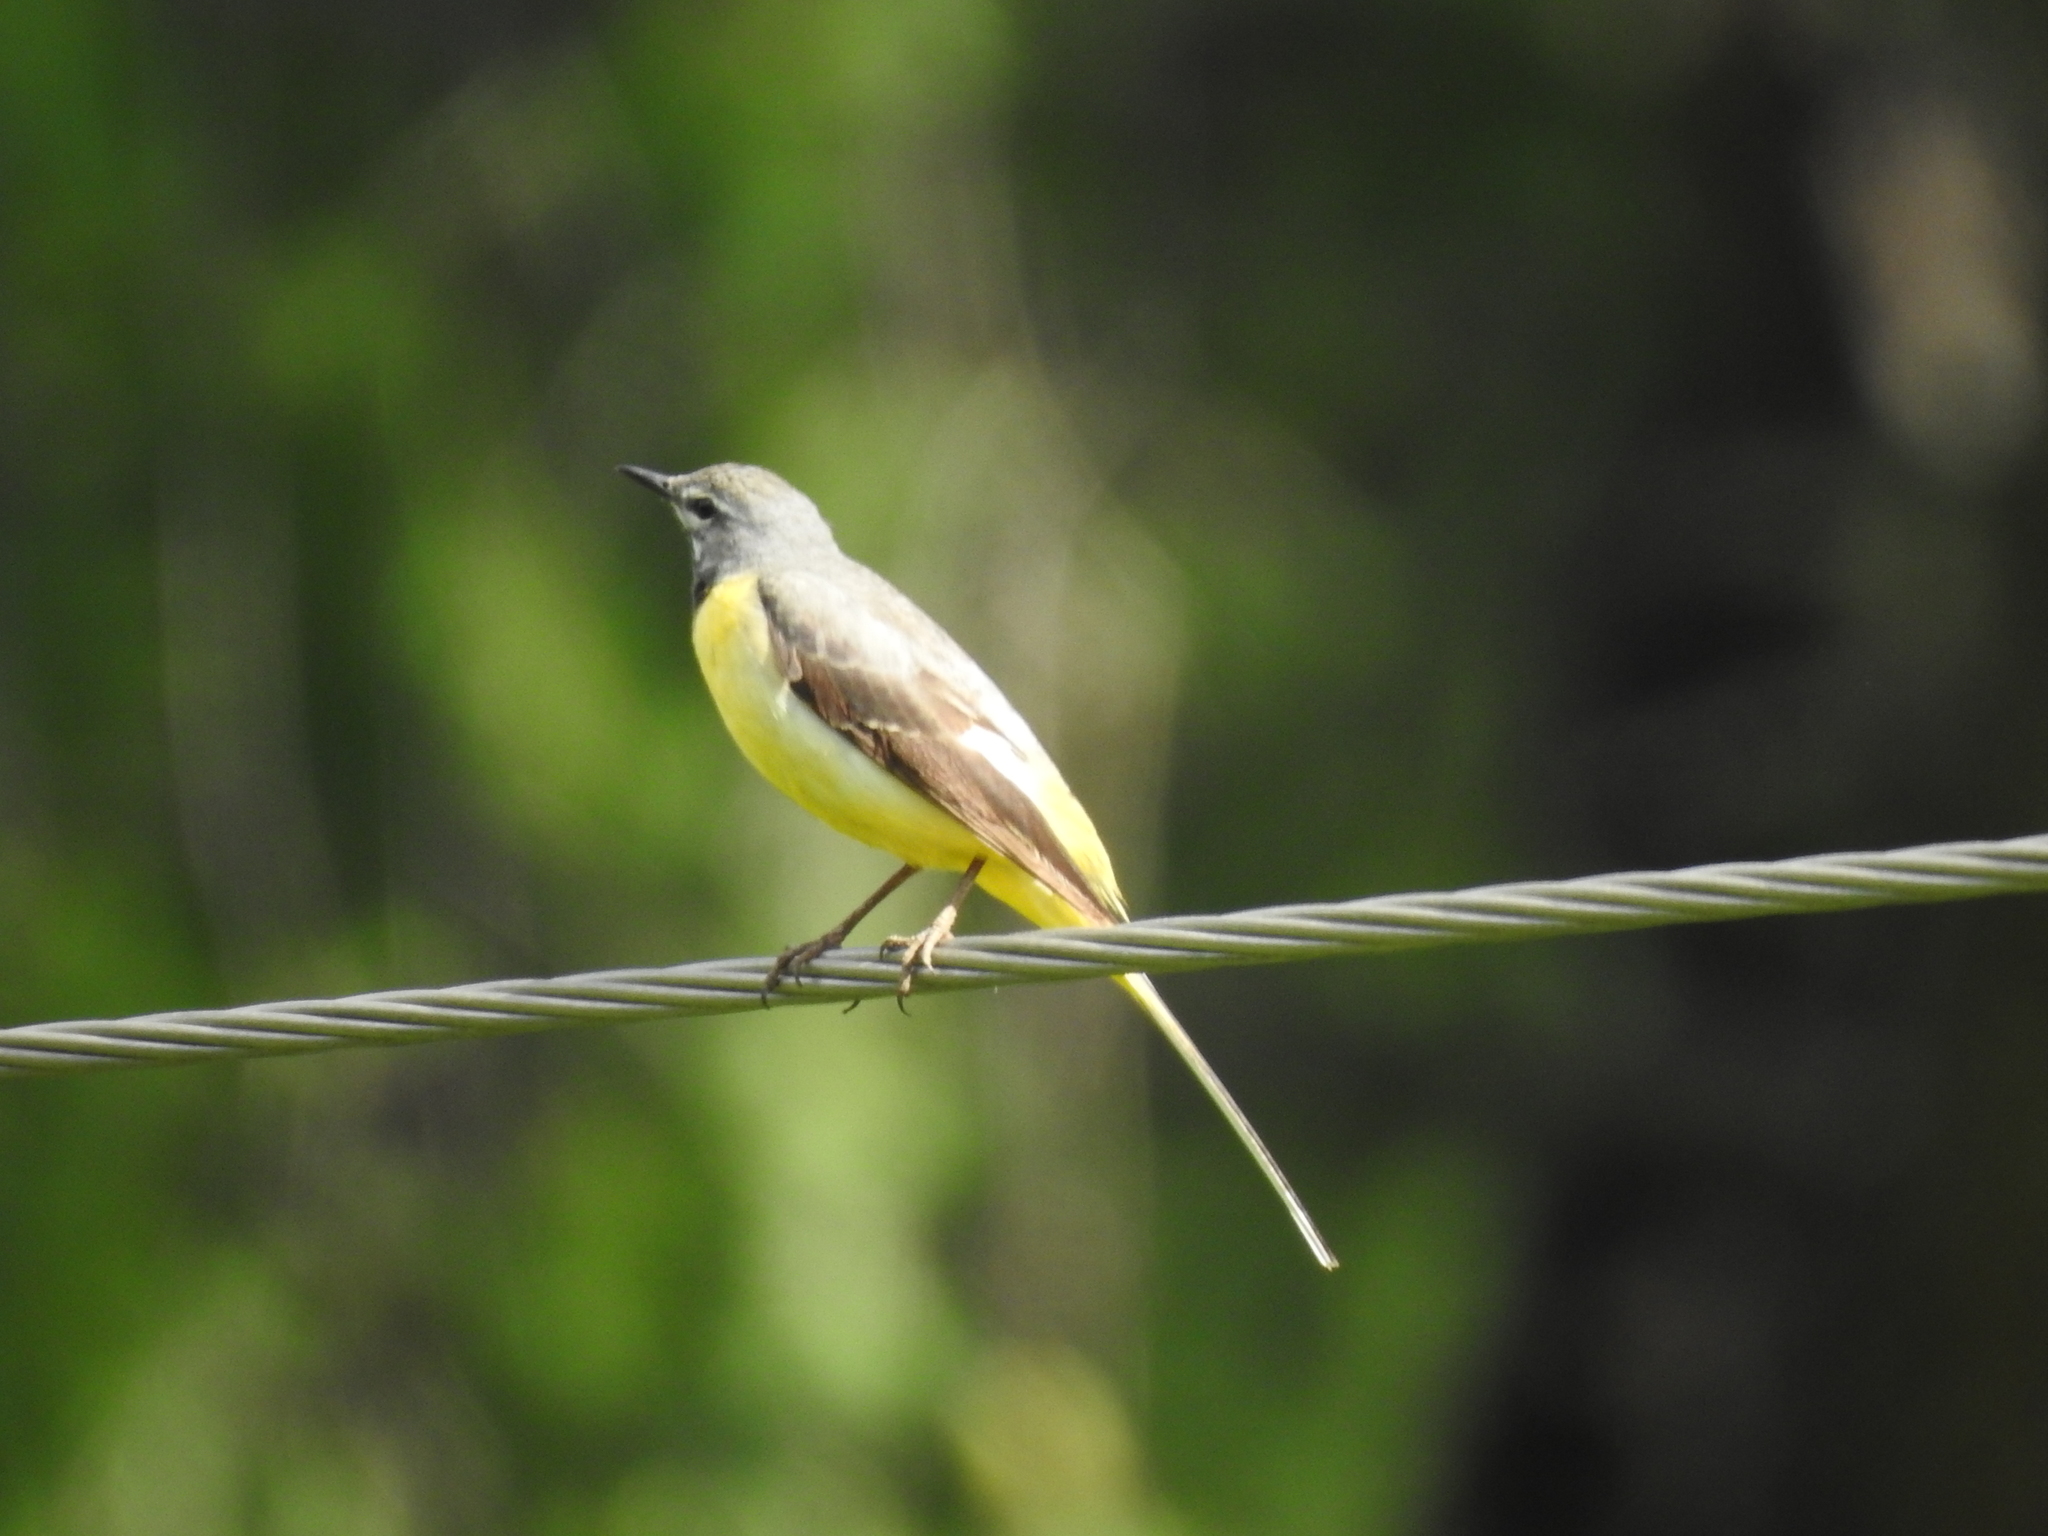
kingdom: Animalia
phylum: Chordata
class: Aves
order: Passeriformes
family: Motacillidae
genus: Motacilla
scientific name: Motacilla cinerea
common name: Grey wagtail
